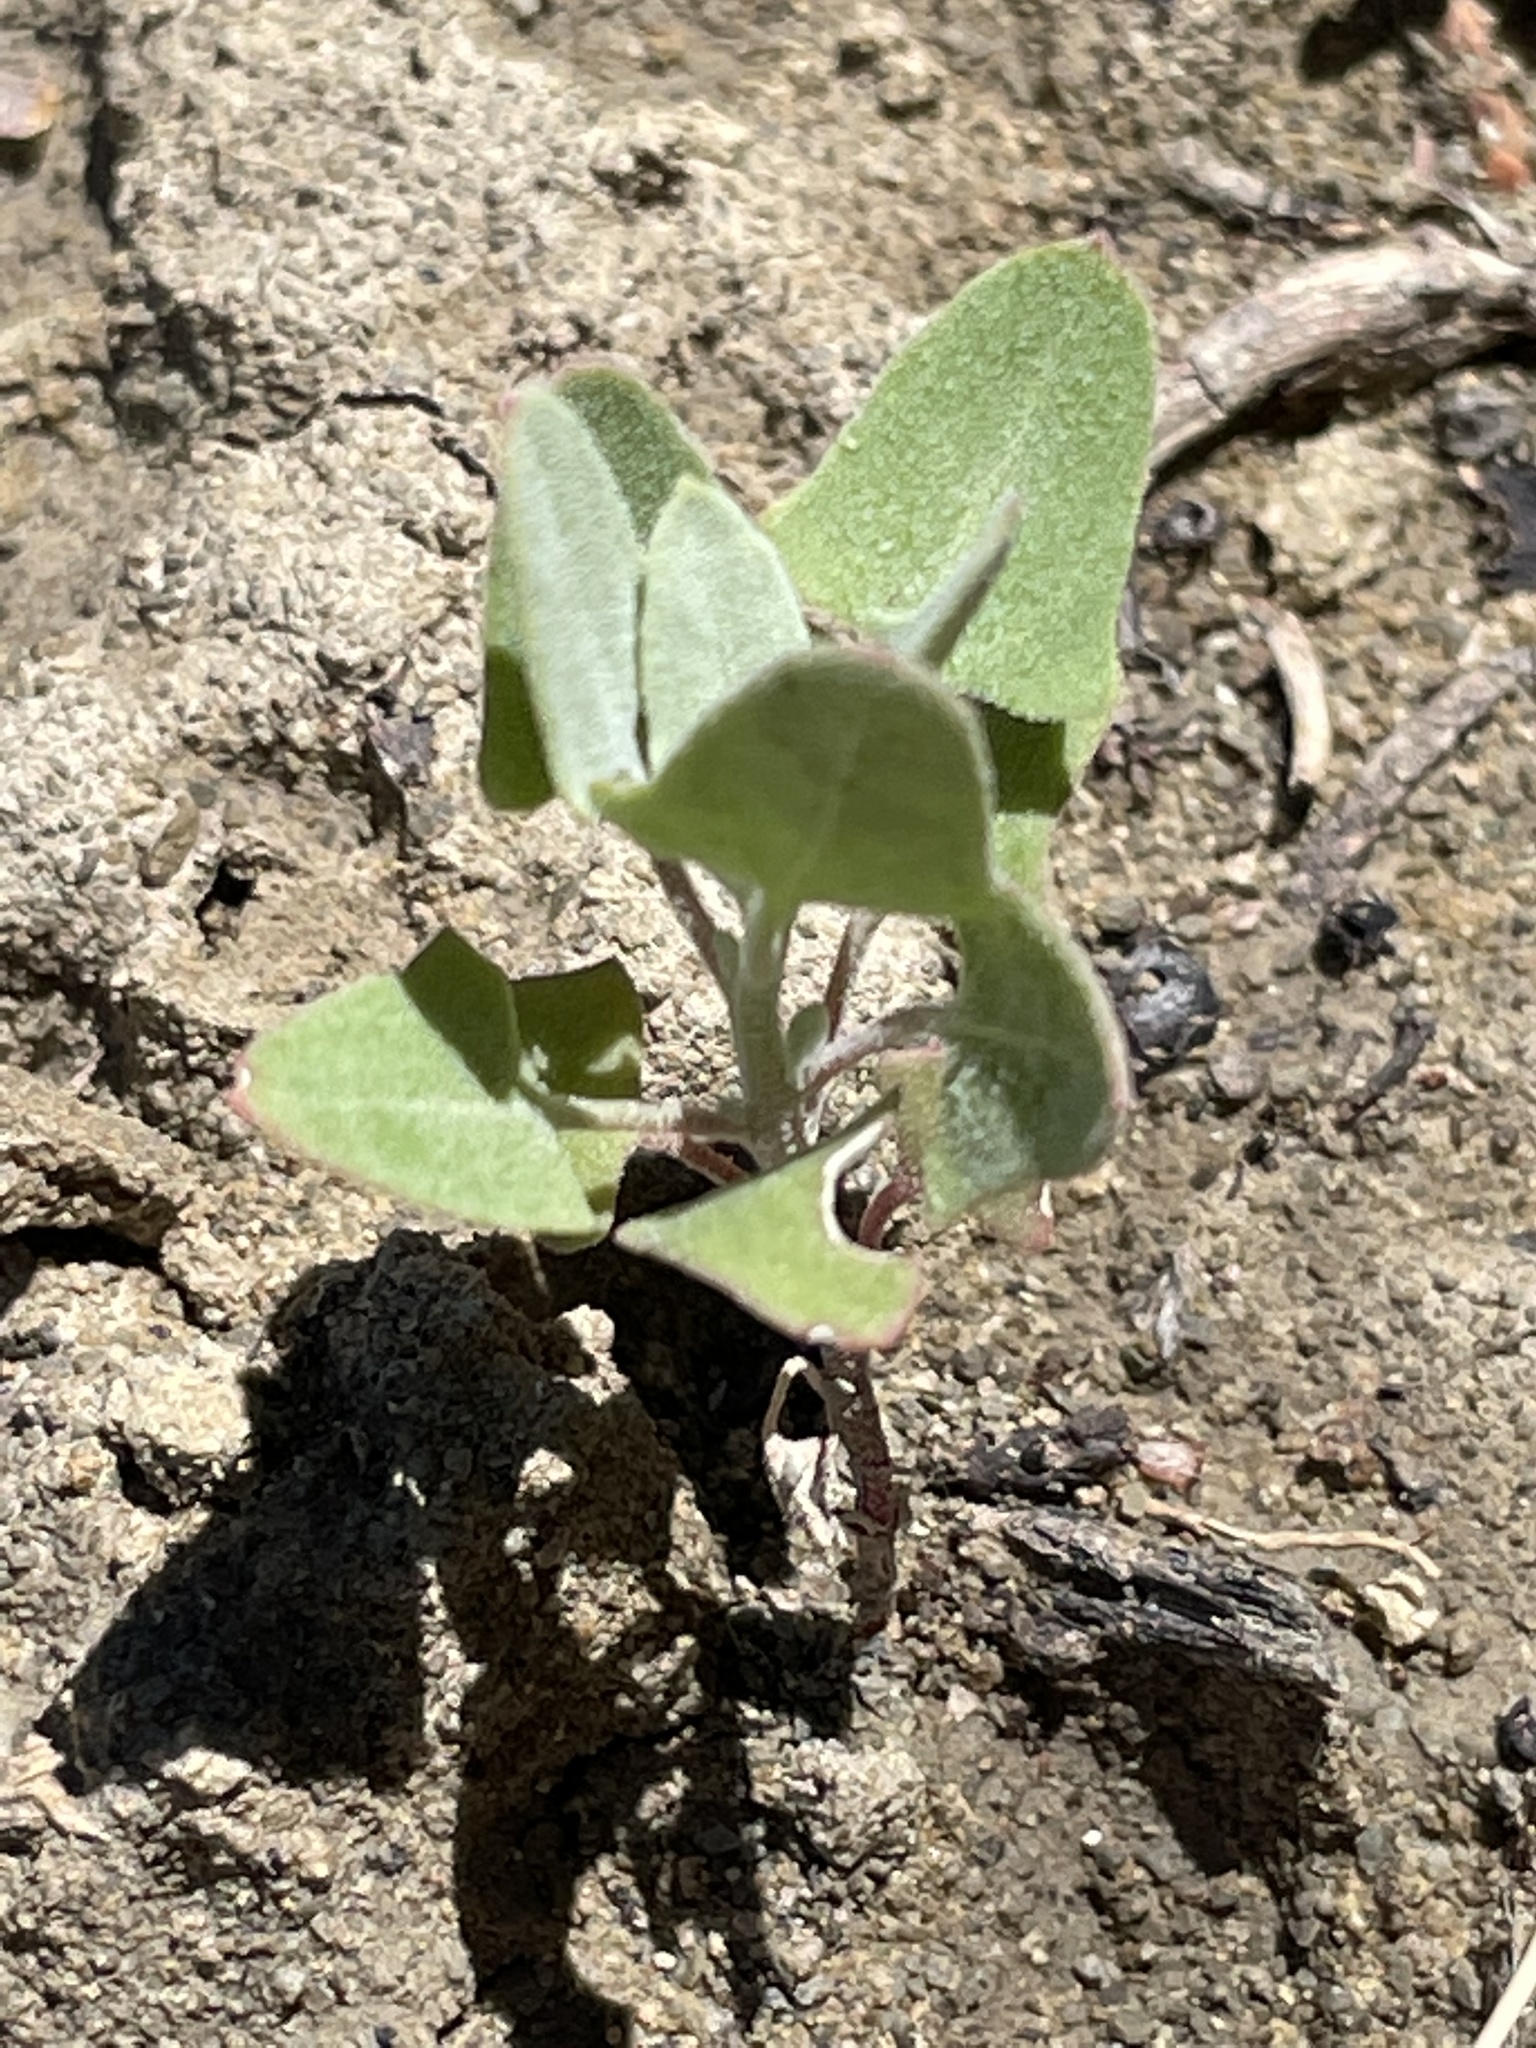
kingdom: Plantae
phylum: Tracheophyta
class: Magnoliopsida
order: Caryophyllales
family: Amaranthaceae
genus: Chenopodium
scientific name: Chenopodium incanum
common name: Hoary goosefoot
